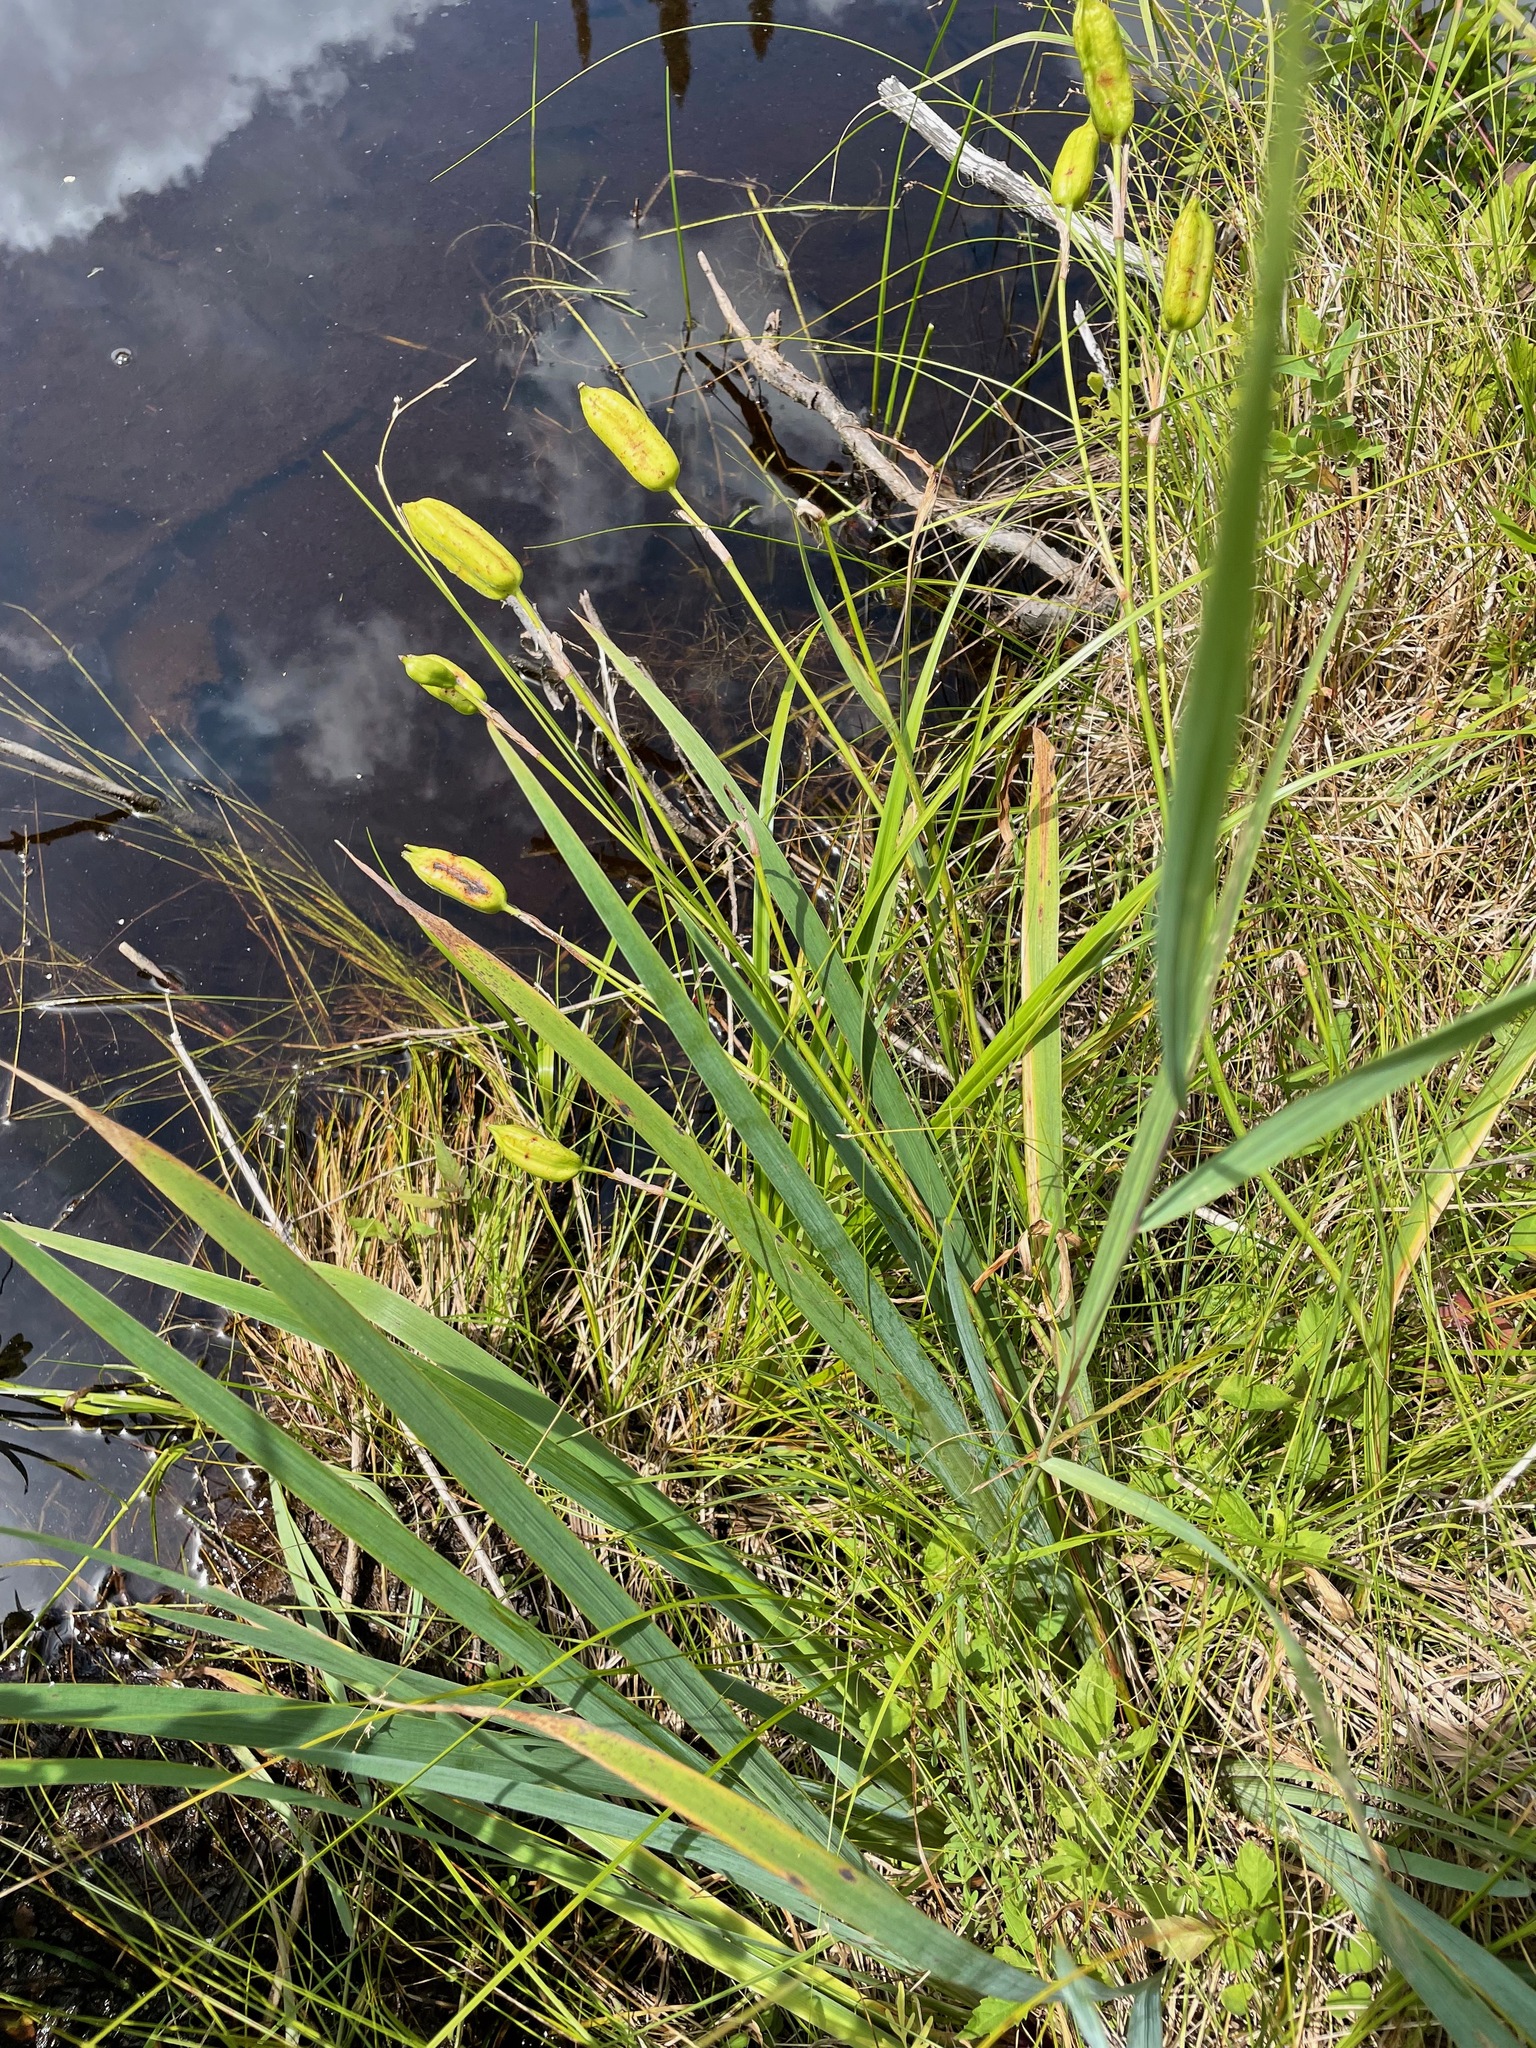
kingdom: Plantae
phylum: Tracheophyta
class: Liliopsida
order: Asparagales
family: Iridaceae
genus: Iris
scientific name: Iris versicolor
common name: Purple iris
